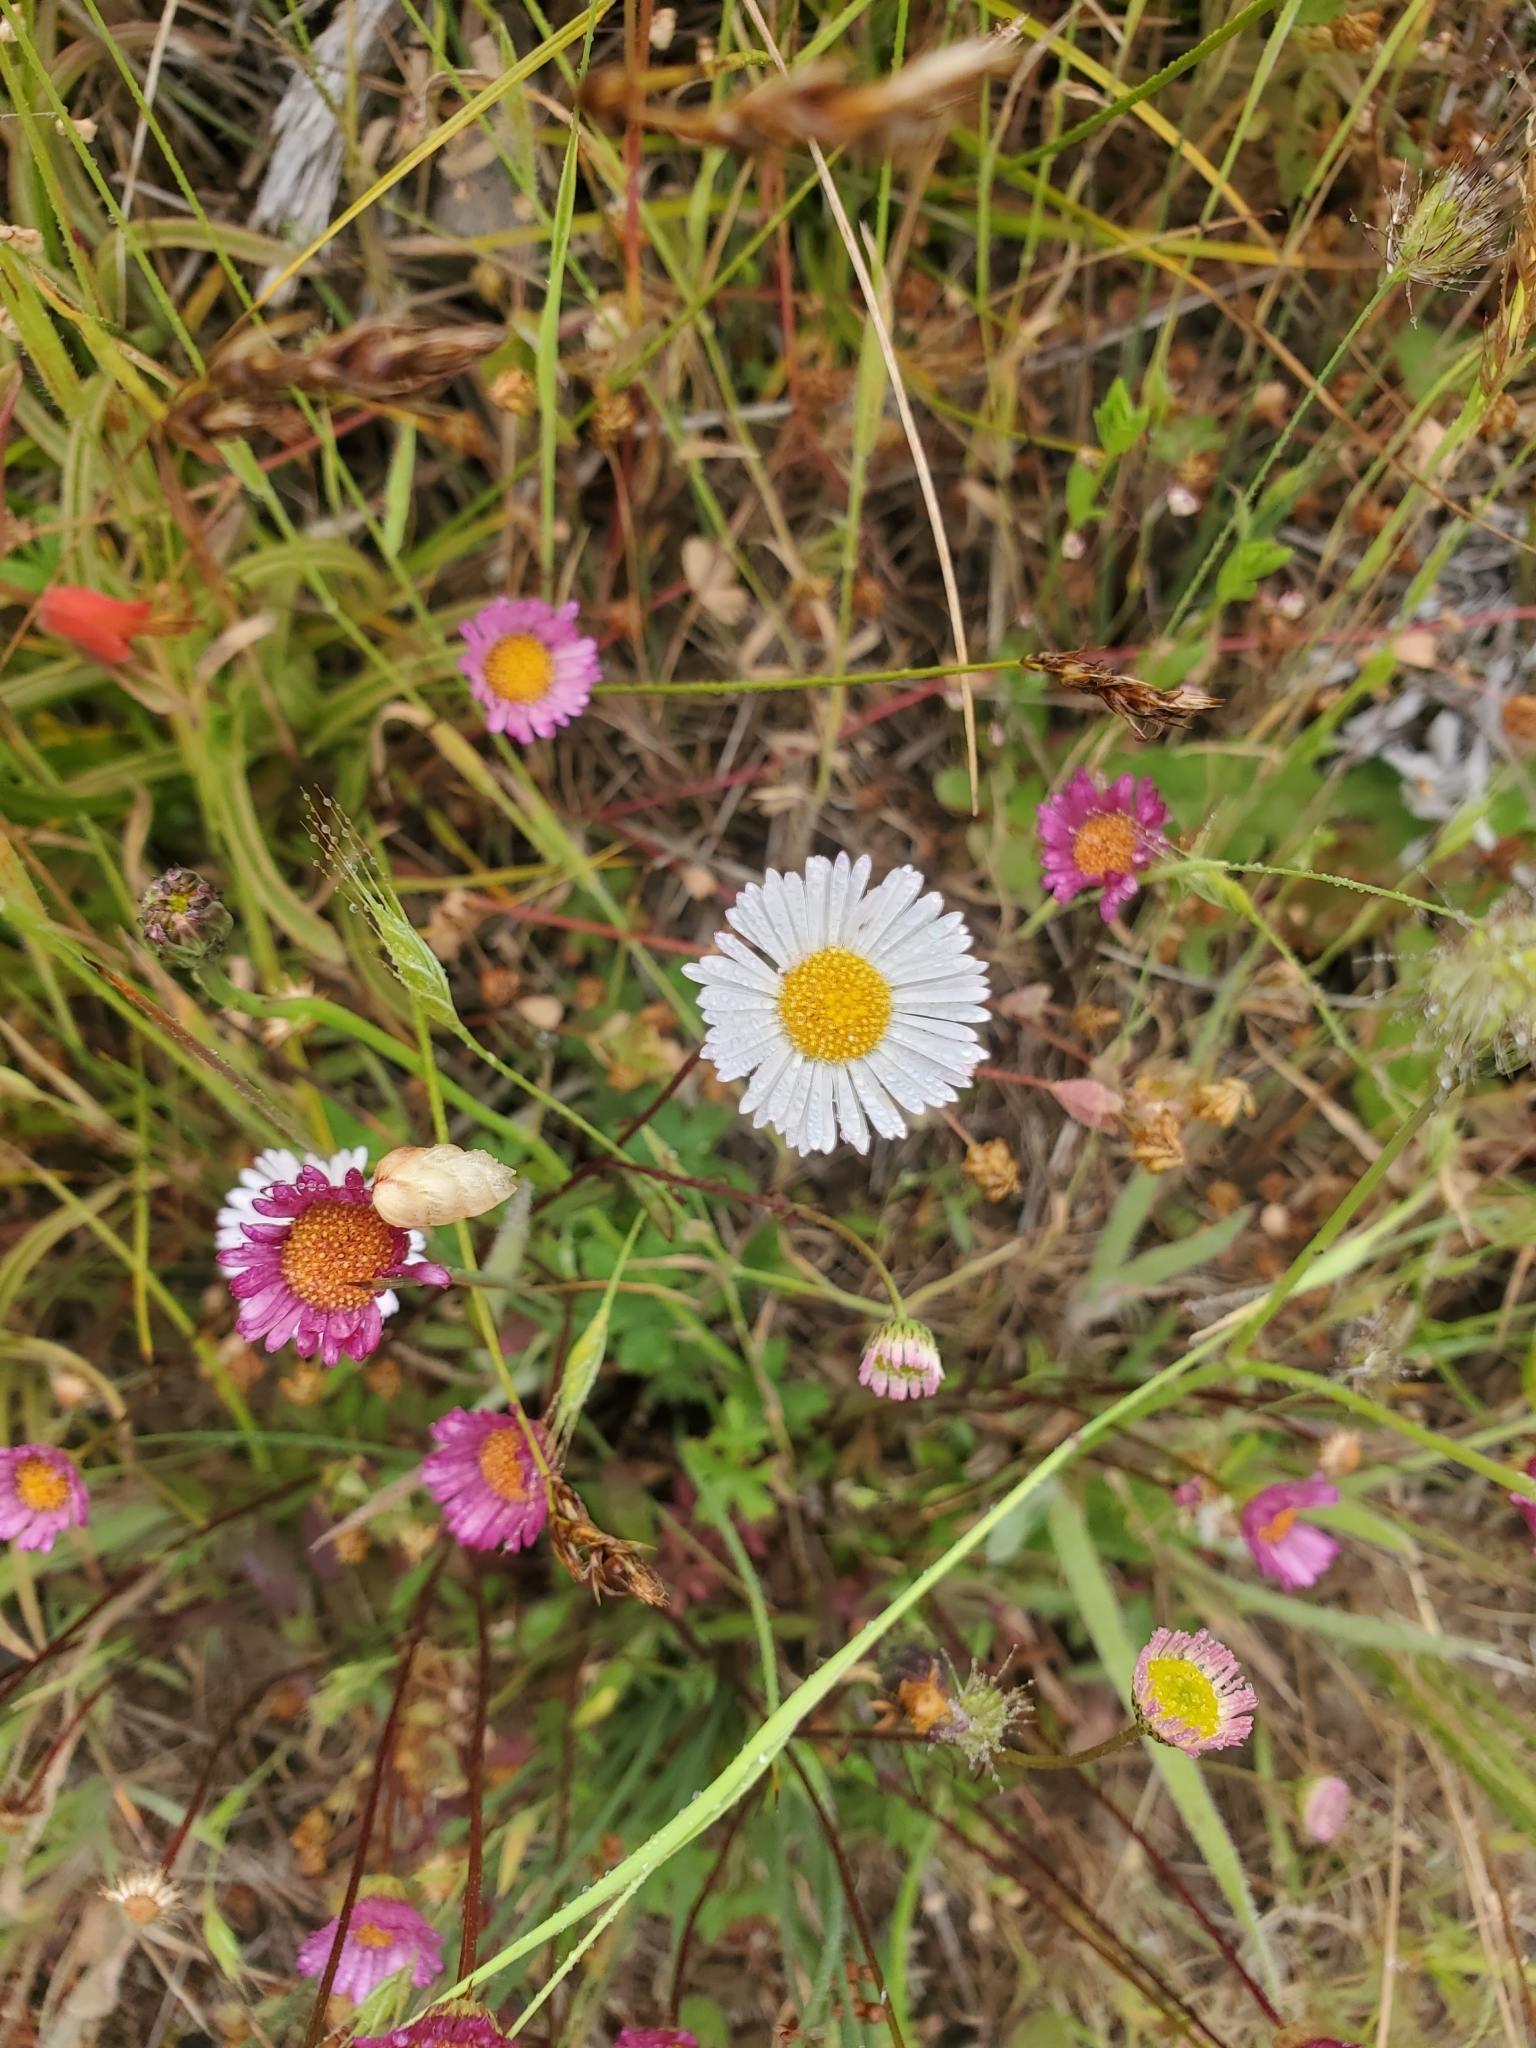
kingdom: Plantae
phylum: Tracheophyta
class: Magnoliopsida
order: Asterales
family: Asteraceae
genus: Erigeron
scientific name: Erigeron karvinskianus
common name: Mexican fleabane
